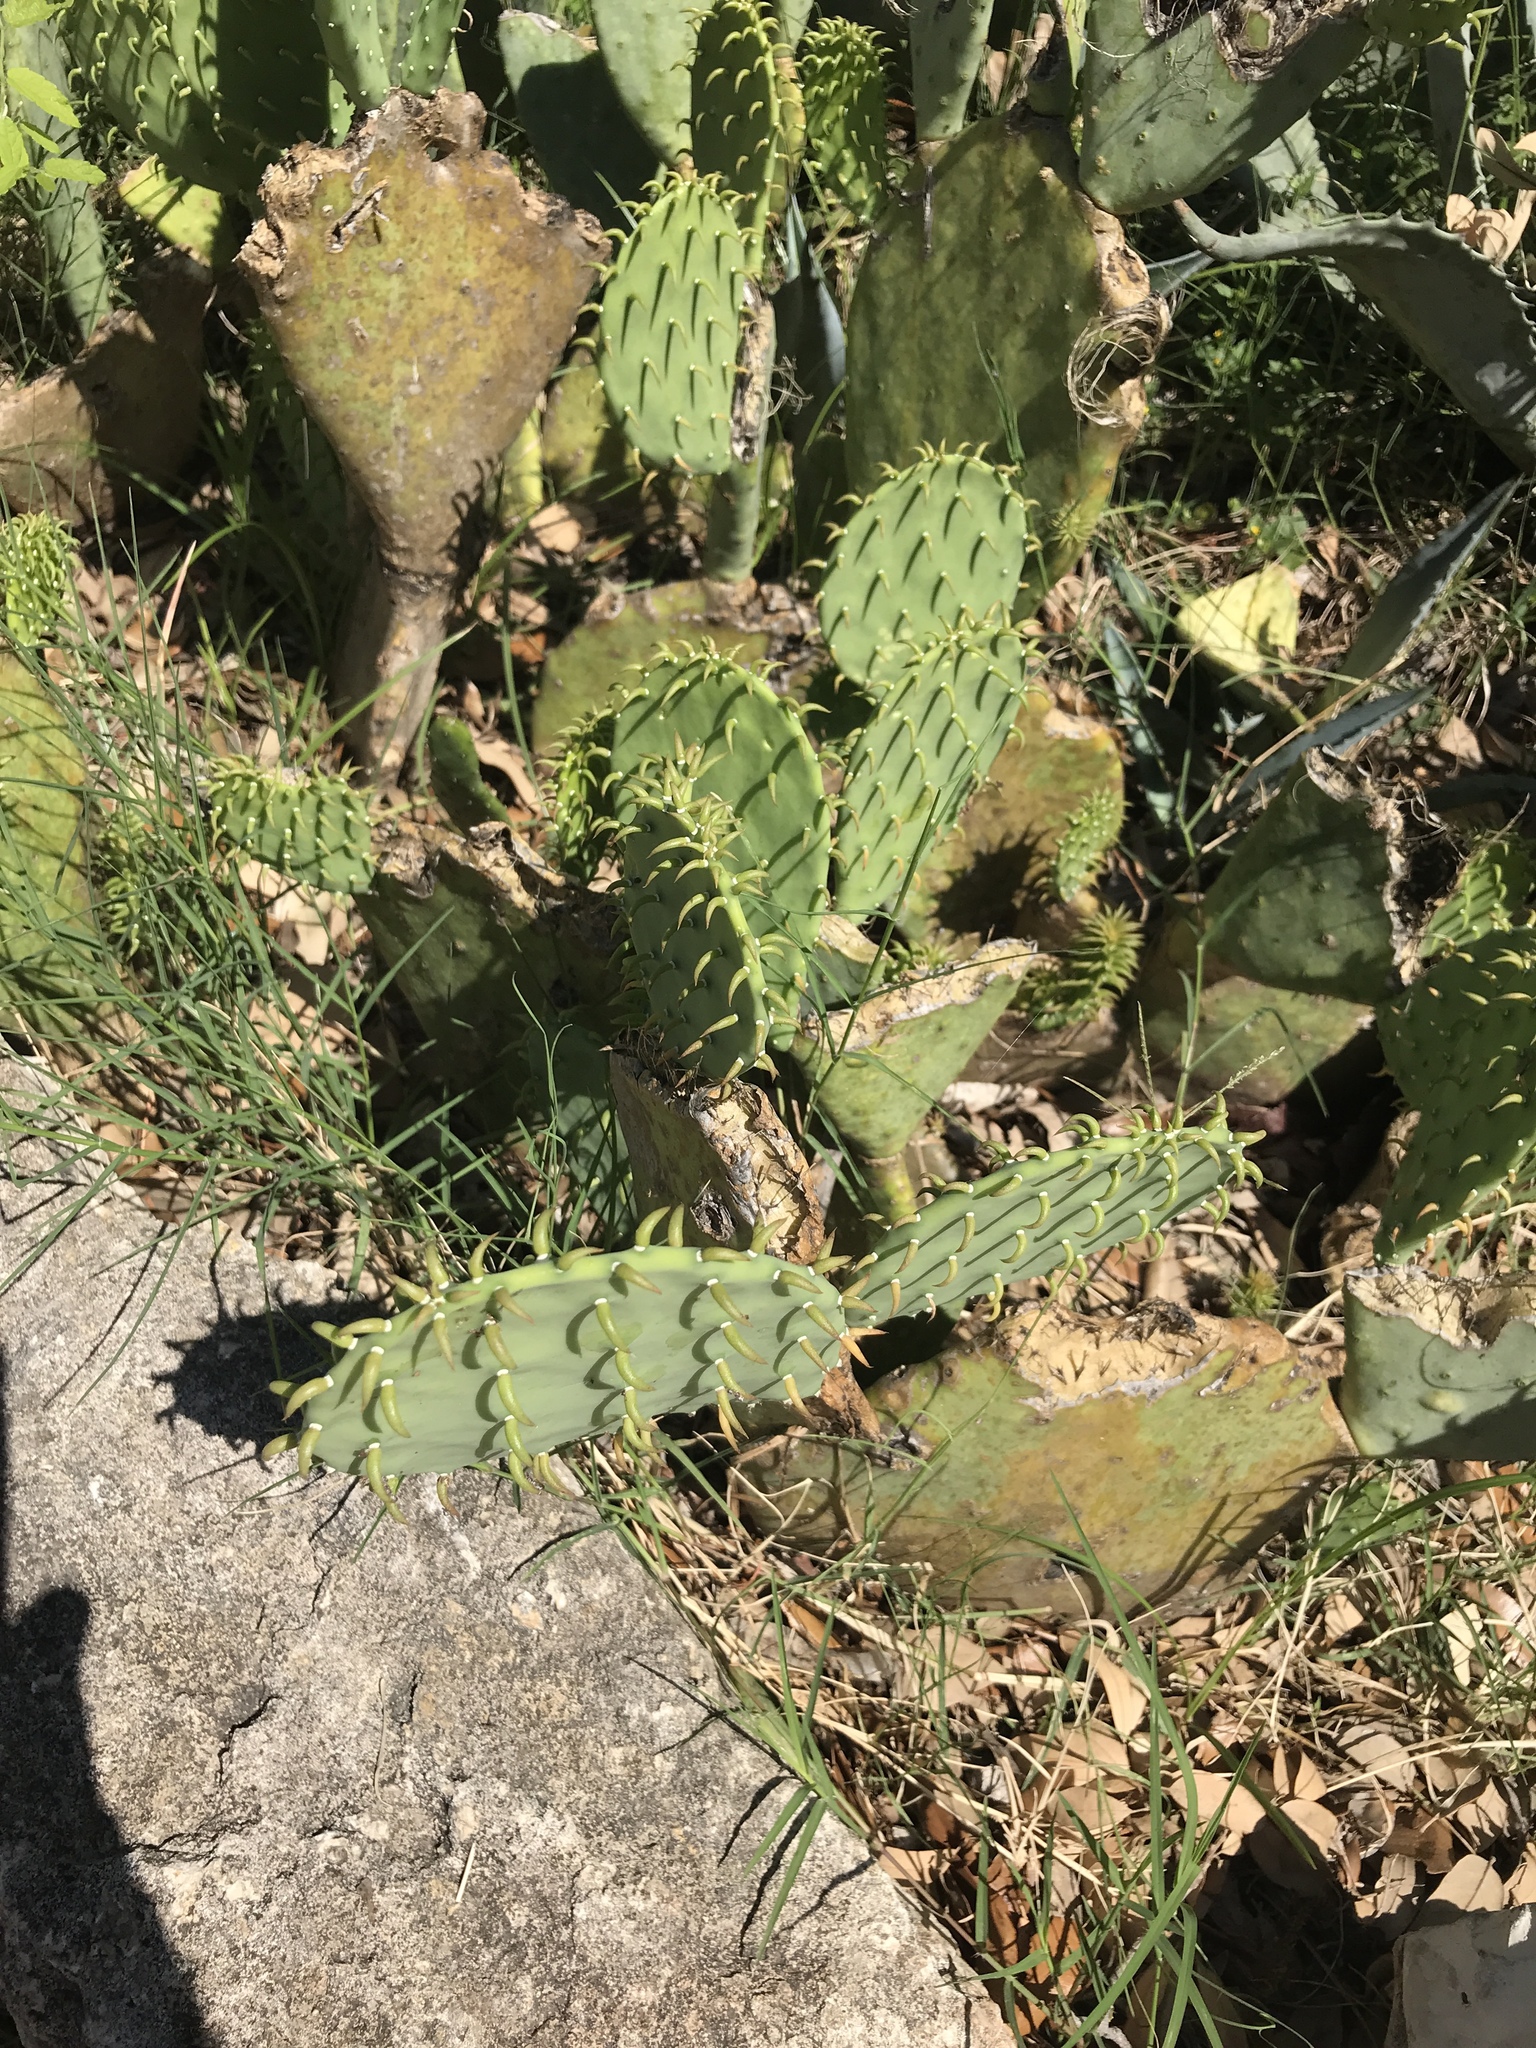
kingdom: Plantae
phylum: Tracheophyta
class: Magnoliopsida
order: Caryophyllales
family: Cactaceae
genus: Opuntia
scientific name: Opuntia engelmannii
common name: Cactus-apple
